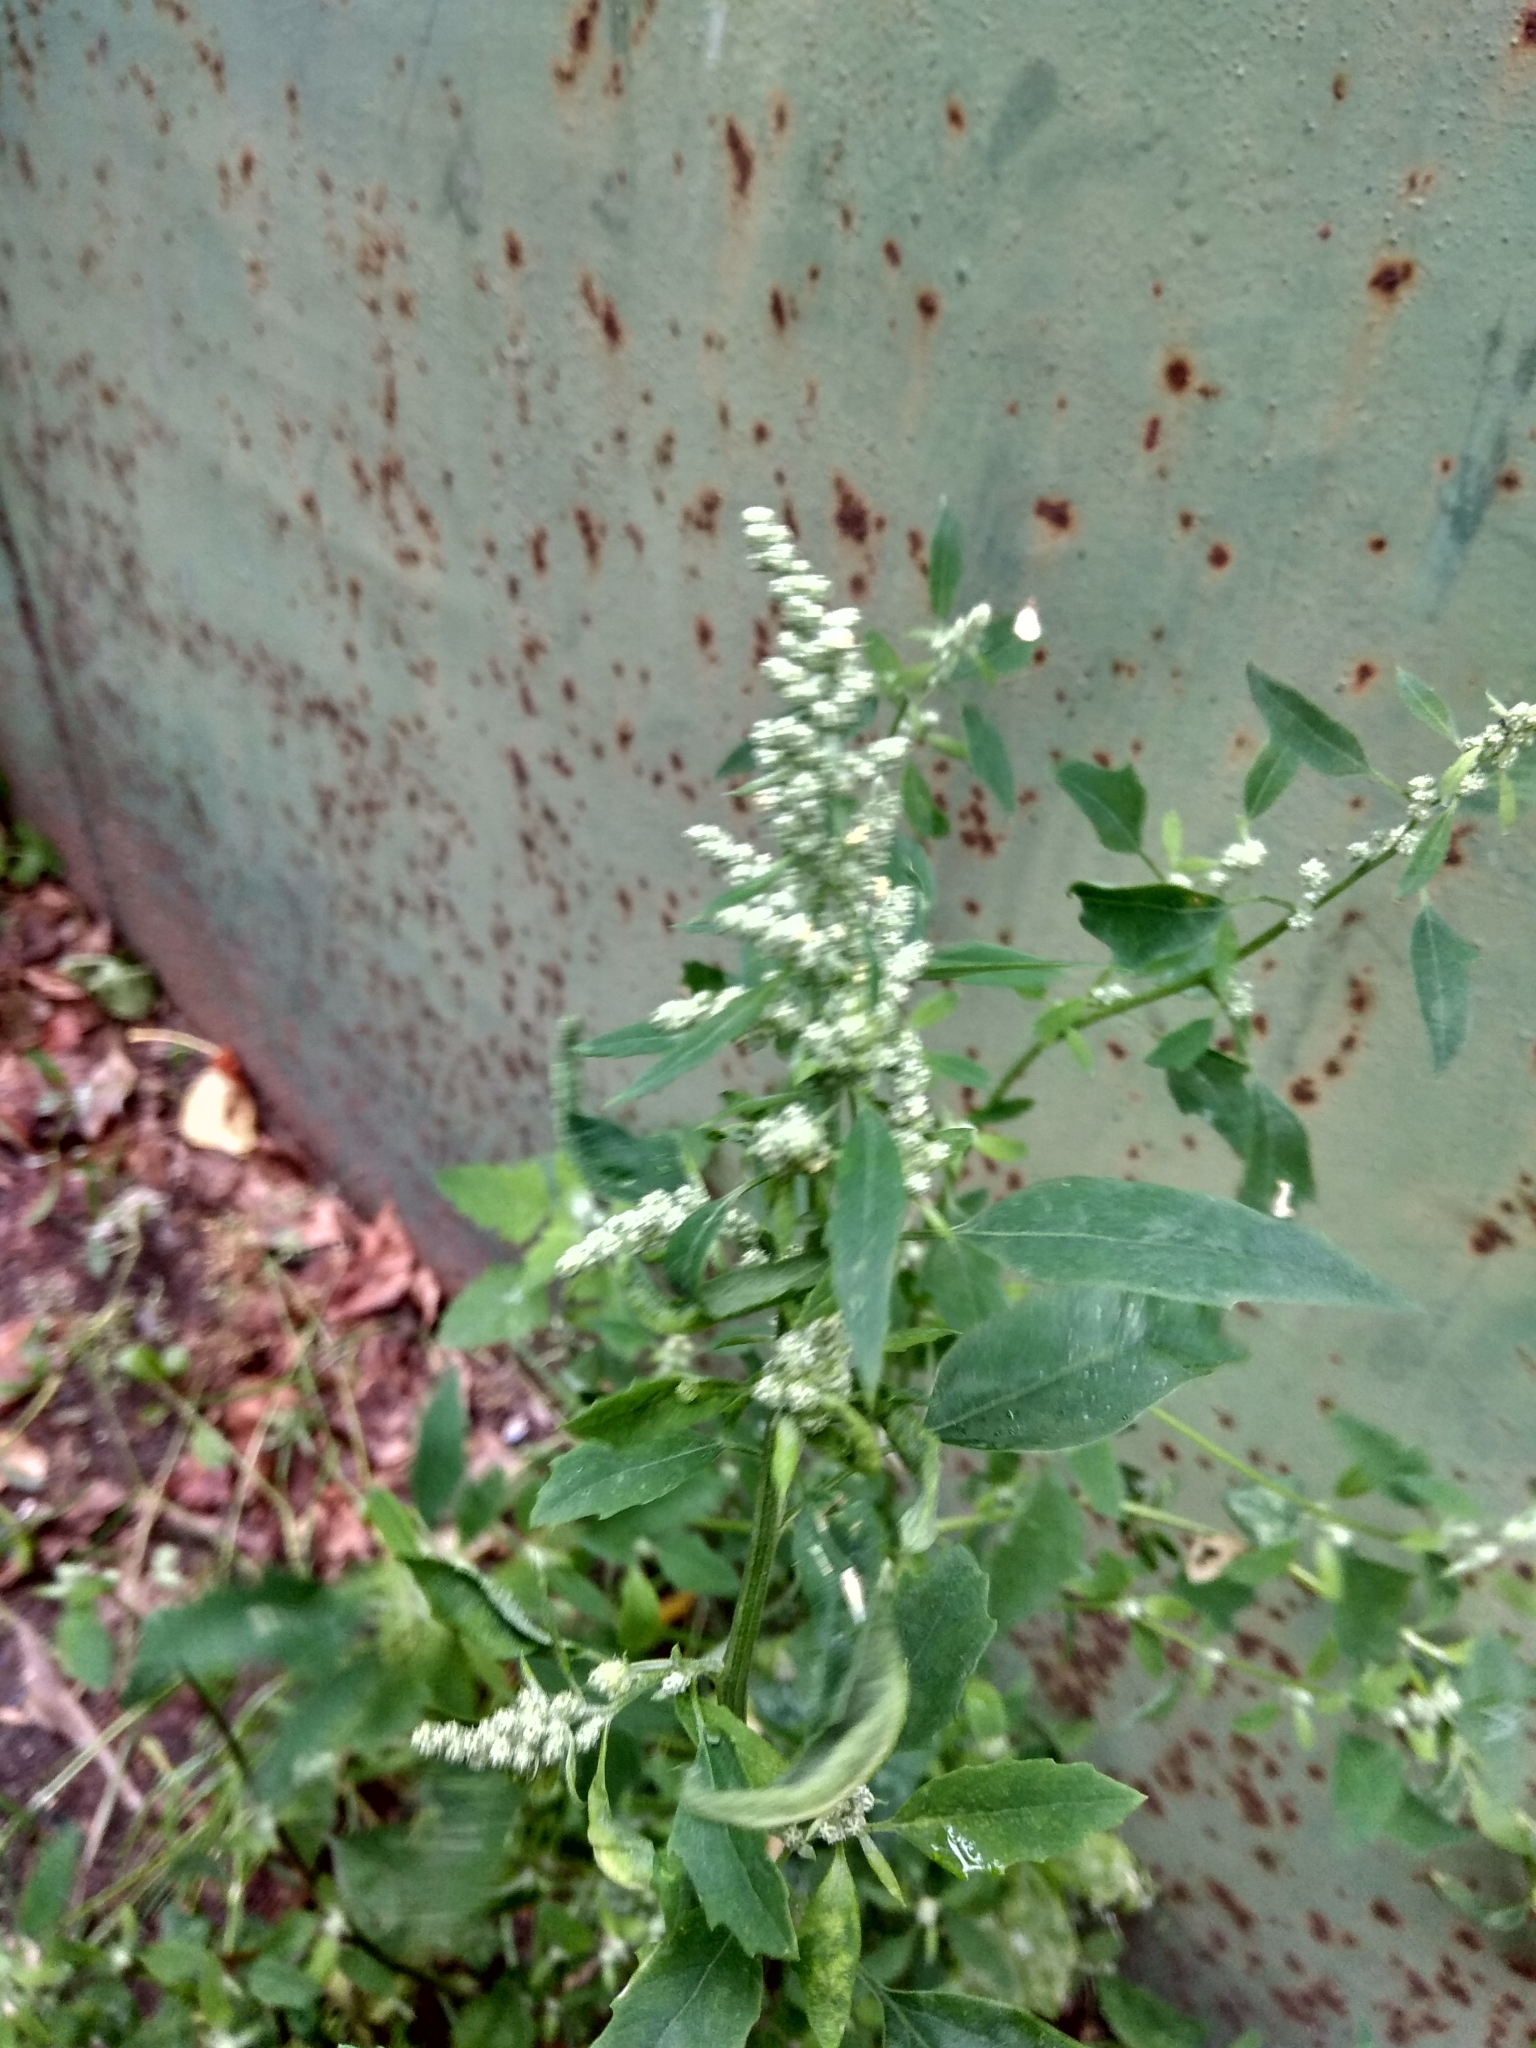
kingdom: Plantae
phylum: Tracheophyta
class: Magnoliopsida
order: Caryophyllales
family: Amaranthaceae
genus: Chenopodium
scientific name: Chenopodium album
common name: Fat-hen
